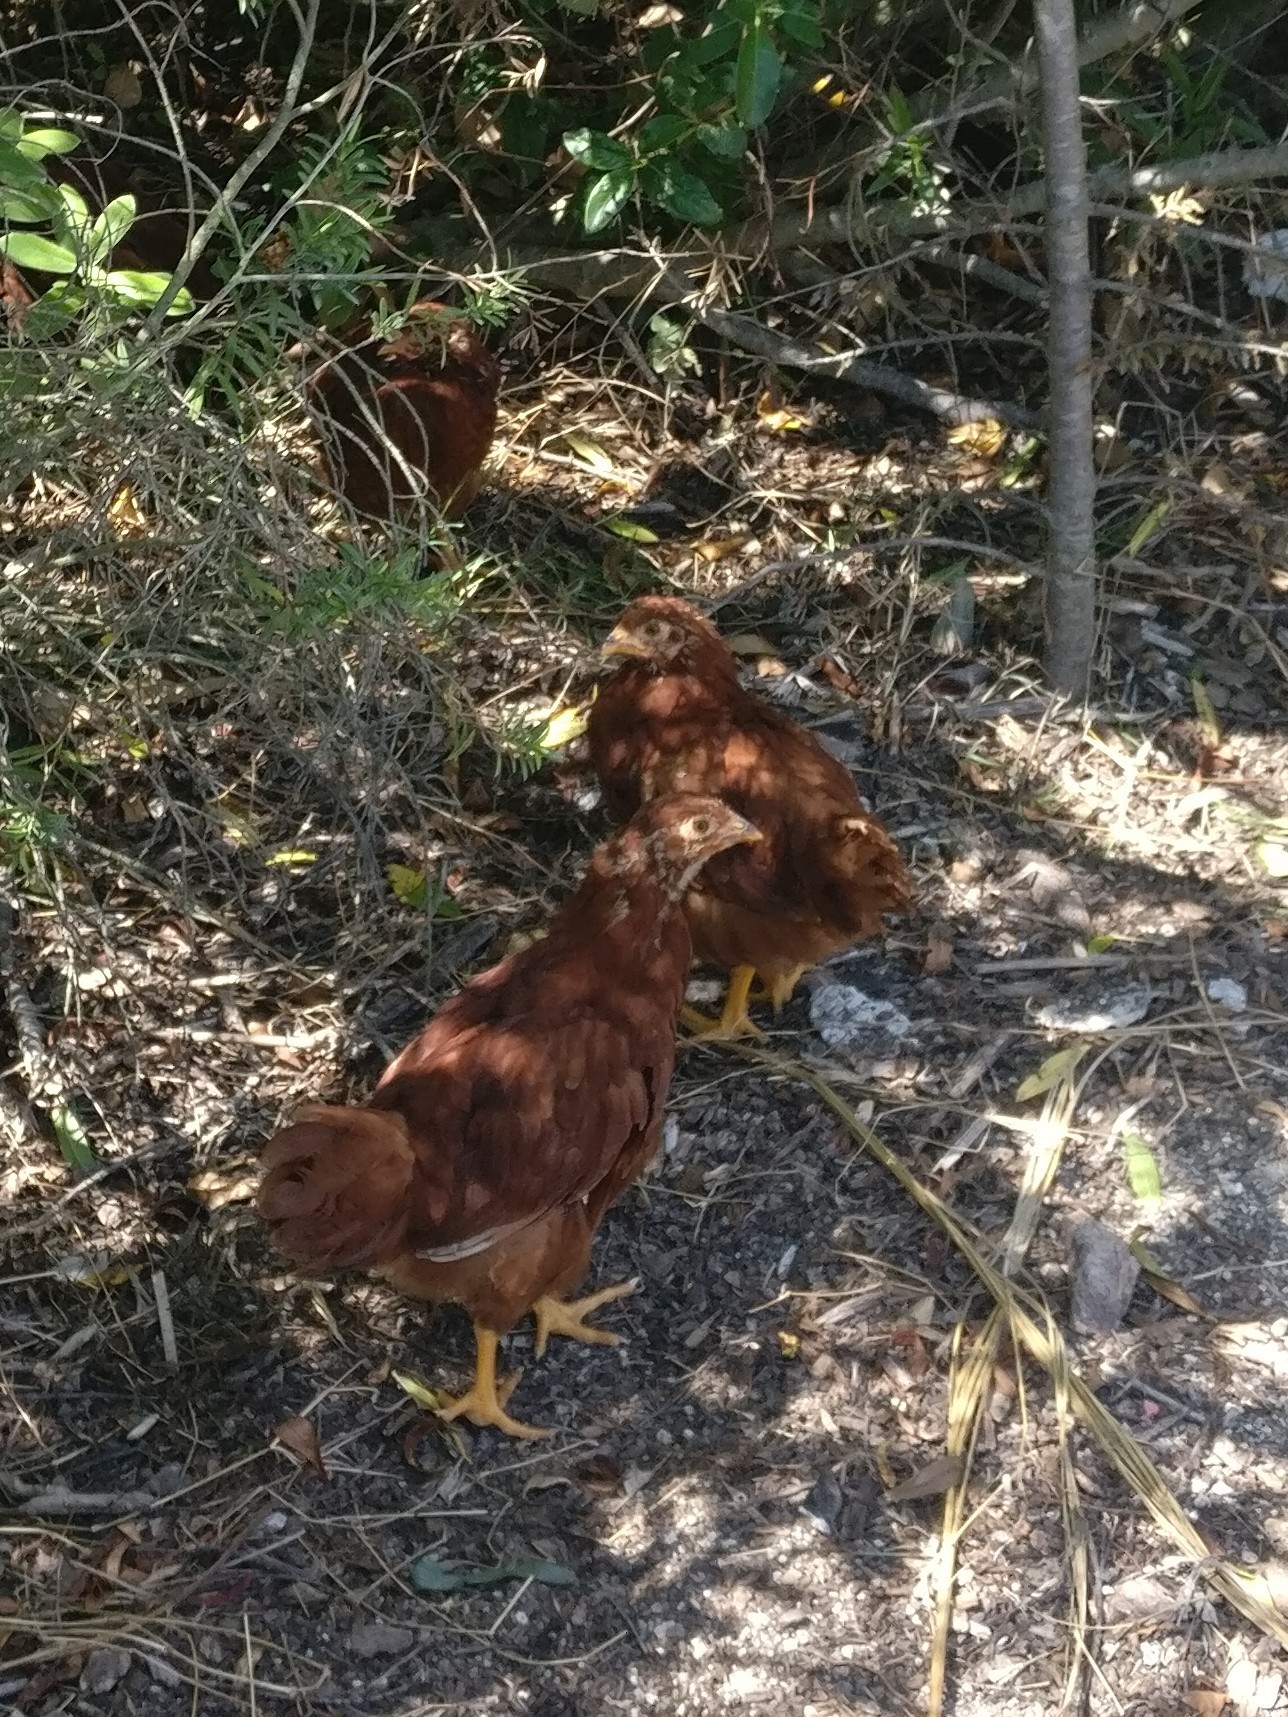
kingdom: Animalia
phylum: Chordata
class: Aves
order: Galliformes
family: Phasianidae
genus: Gallus
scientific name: Gallus gallus
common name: Red junglefowl
